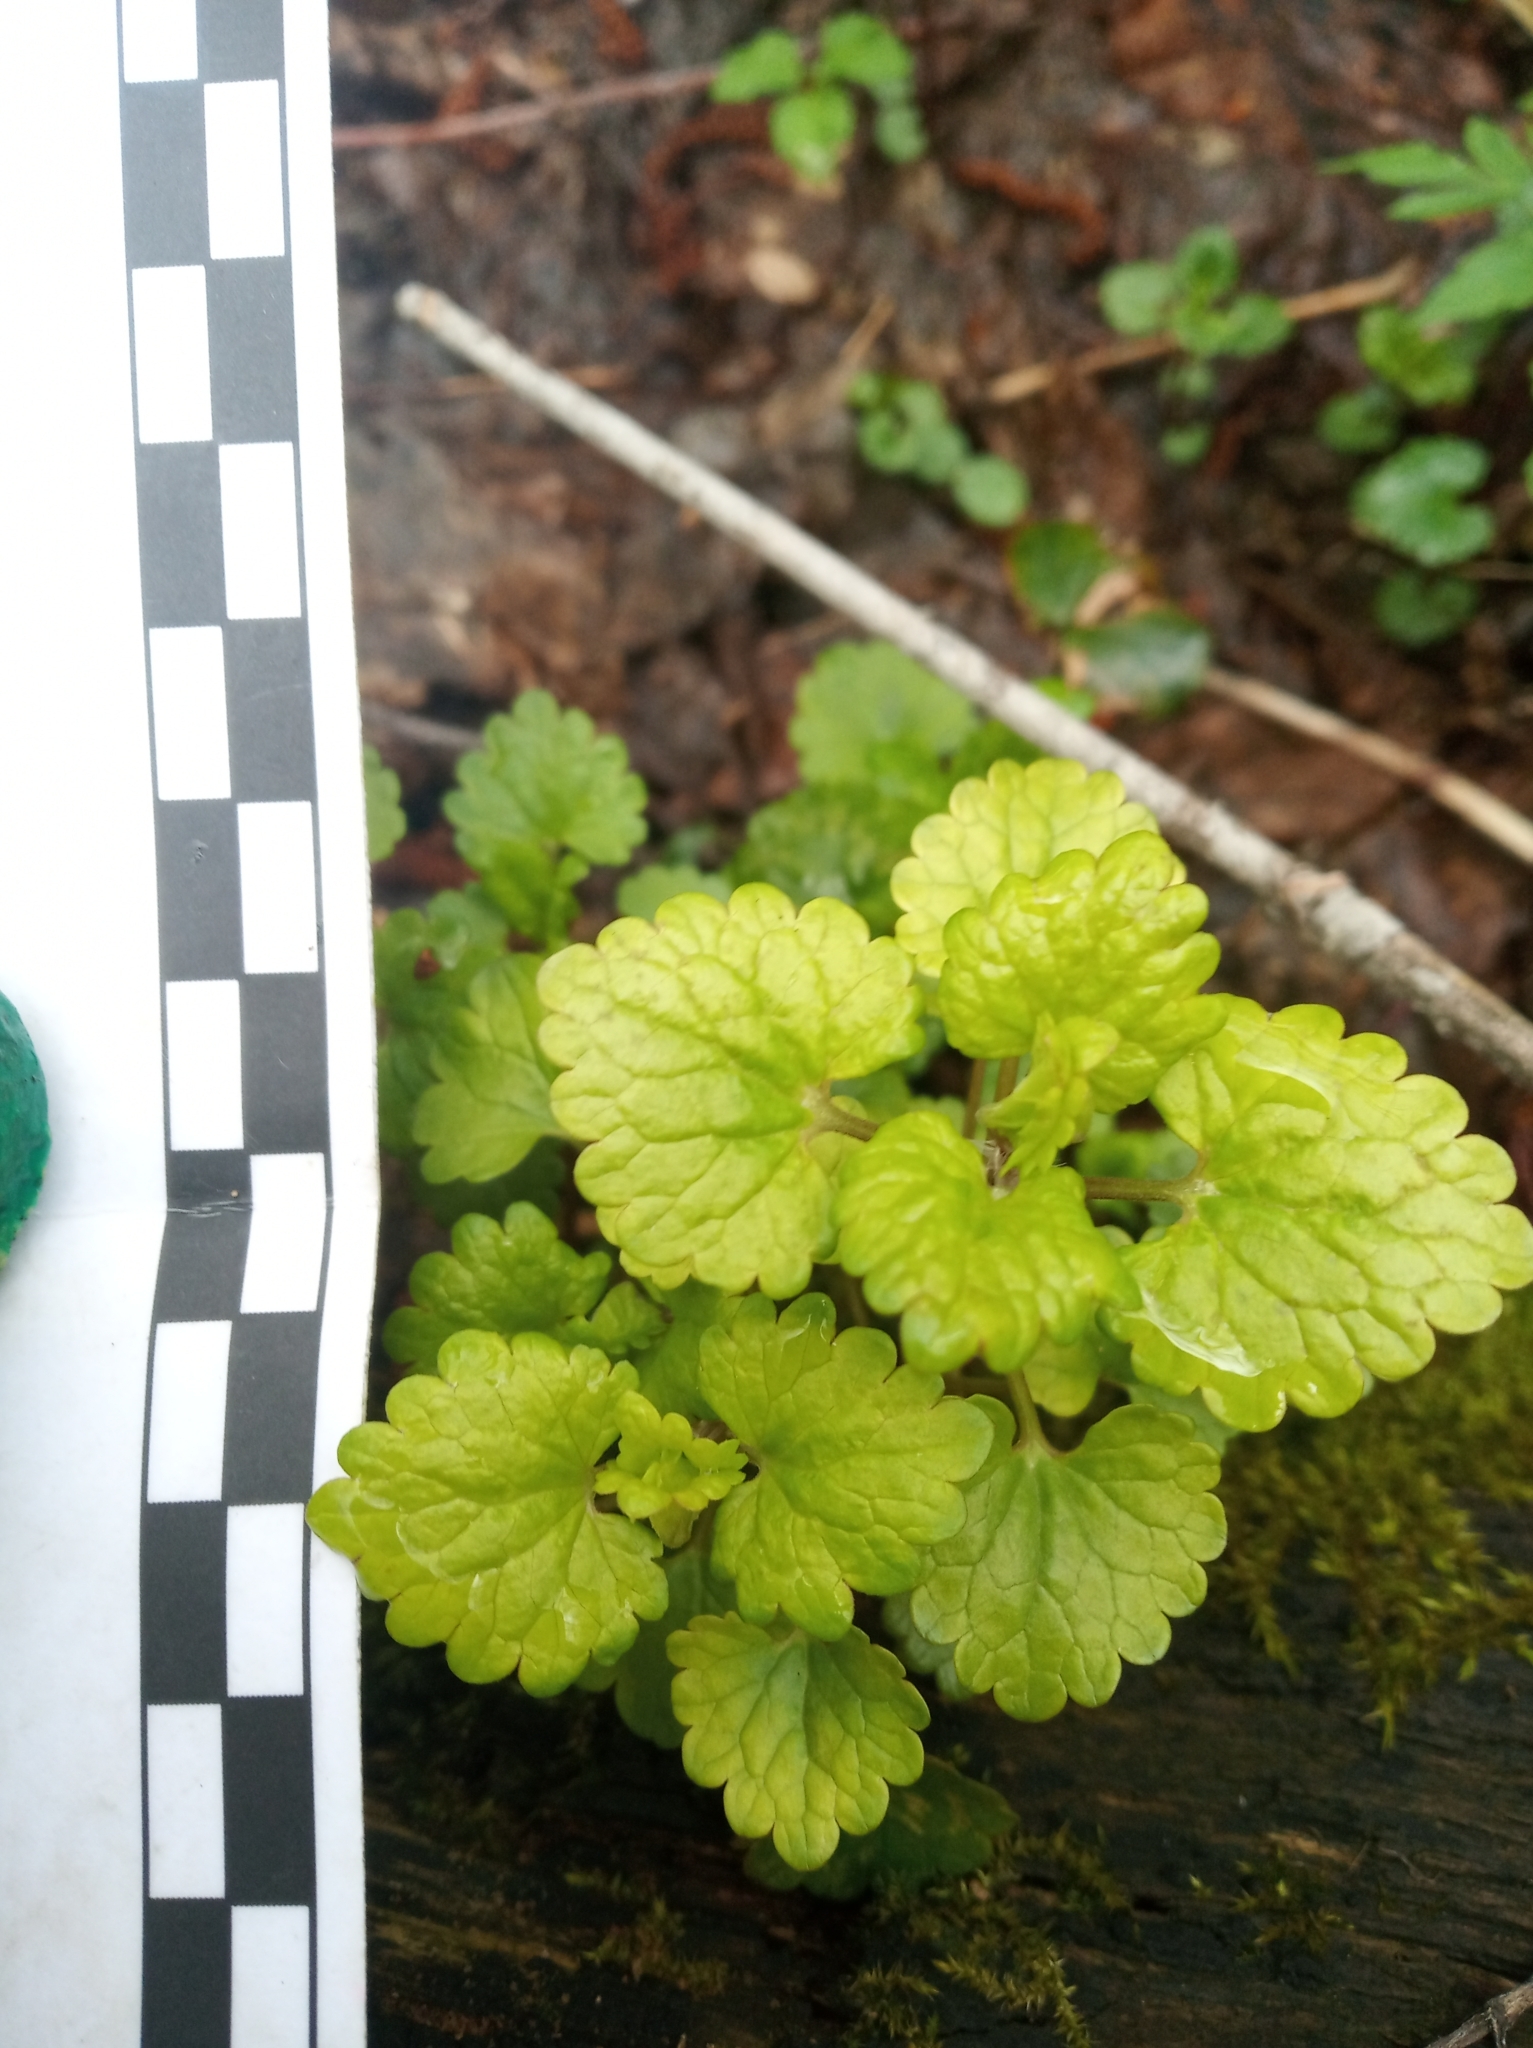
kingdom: Plantae
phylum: Tracheophyta
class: Magnoliopsida
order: Lamiales
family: Lamiaceae
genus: Glechoma
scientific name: Glechoma hederacea
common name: Ground ivy
